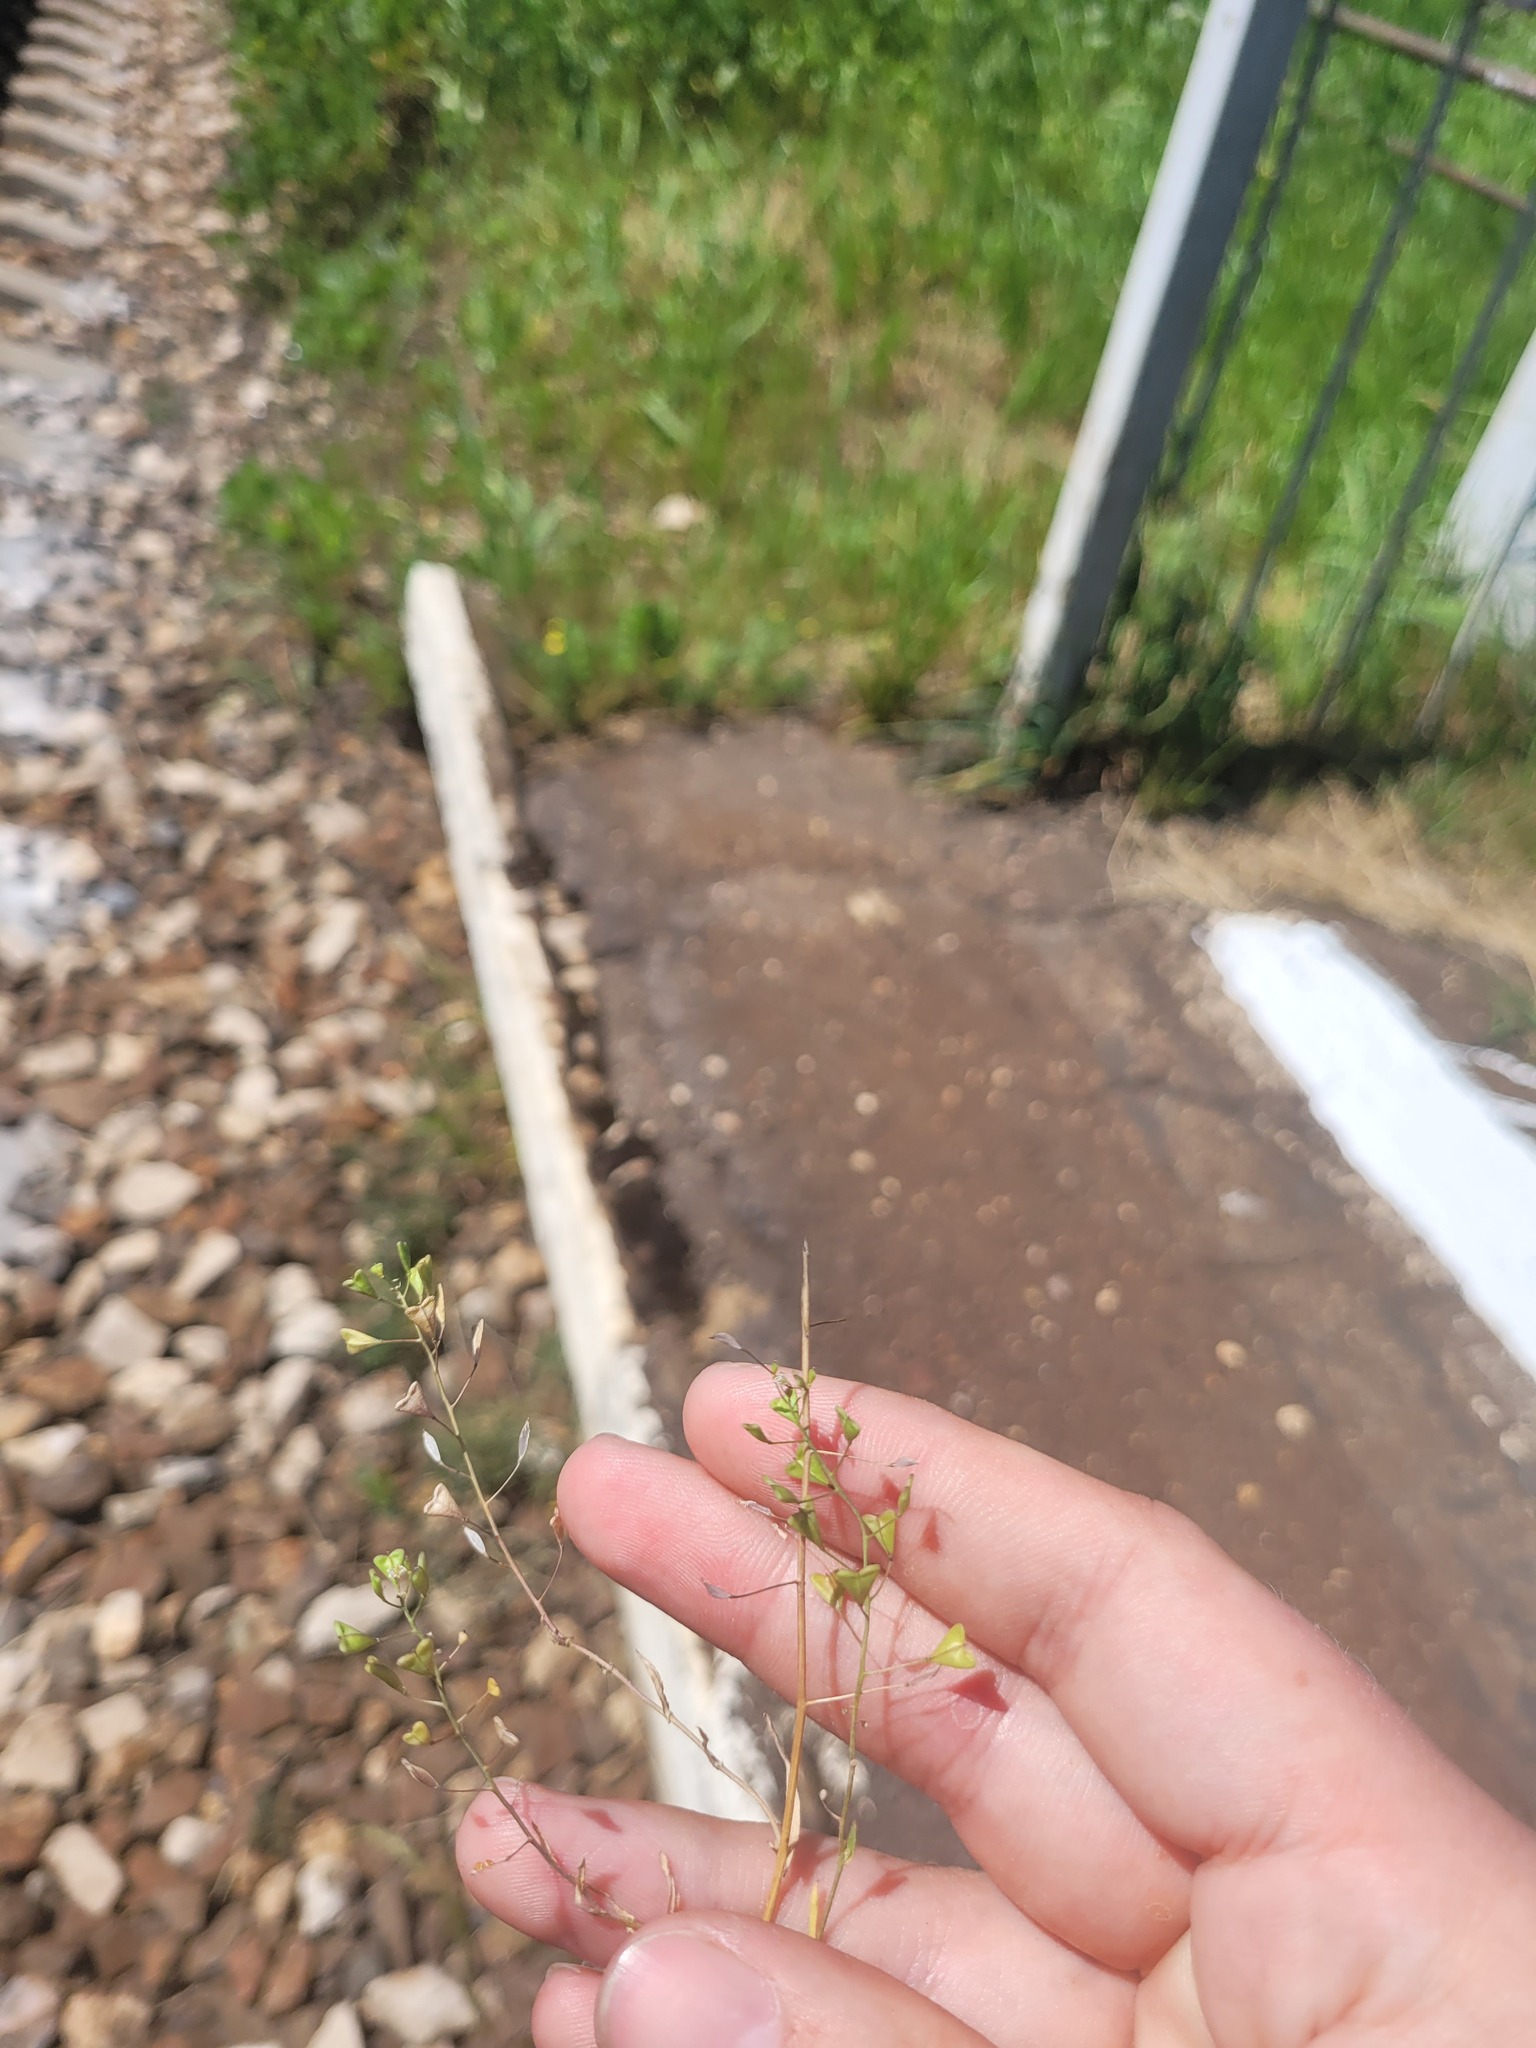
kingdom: Plantae
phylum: Tracheophyta
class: Magnoliopsida
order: Brassicales
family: Brassicaceae
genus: Capsella
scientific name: Capsella bursa-pastoris
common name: Shepherd's purse
